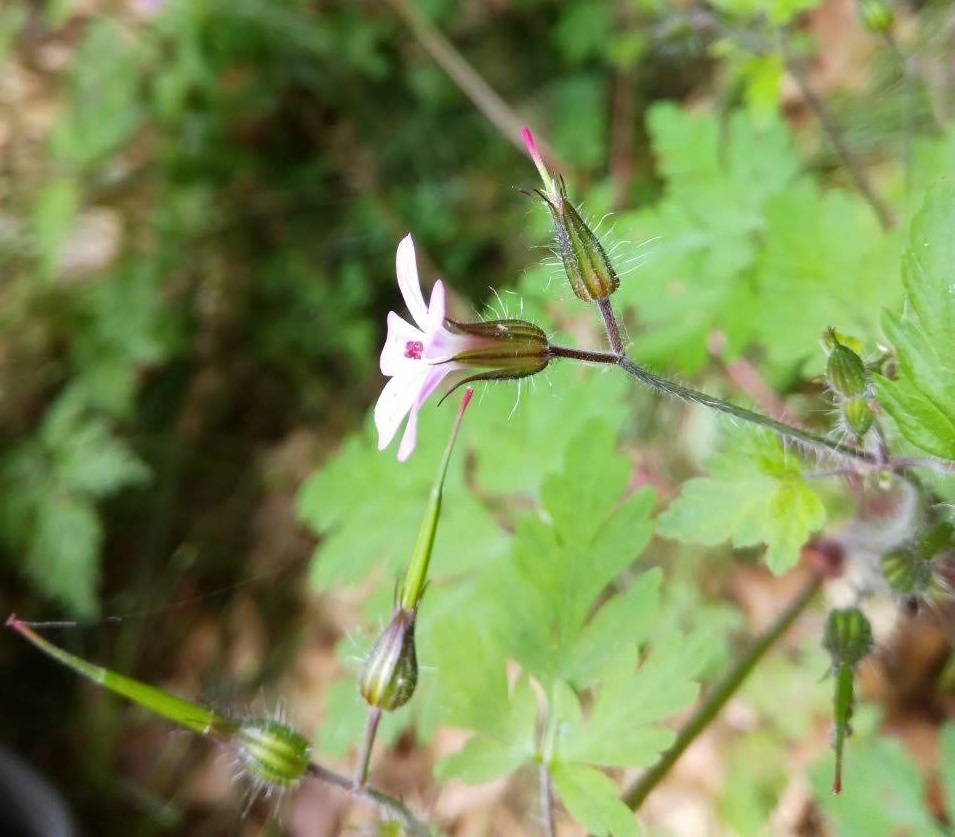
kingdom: Plantae
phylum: Tracheophyta
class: Magnoliopsida
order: Geraniales
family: Geraniaceae
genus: Geranium
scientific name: Geranium robertianum
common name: Herb-robert
